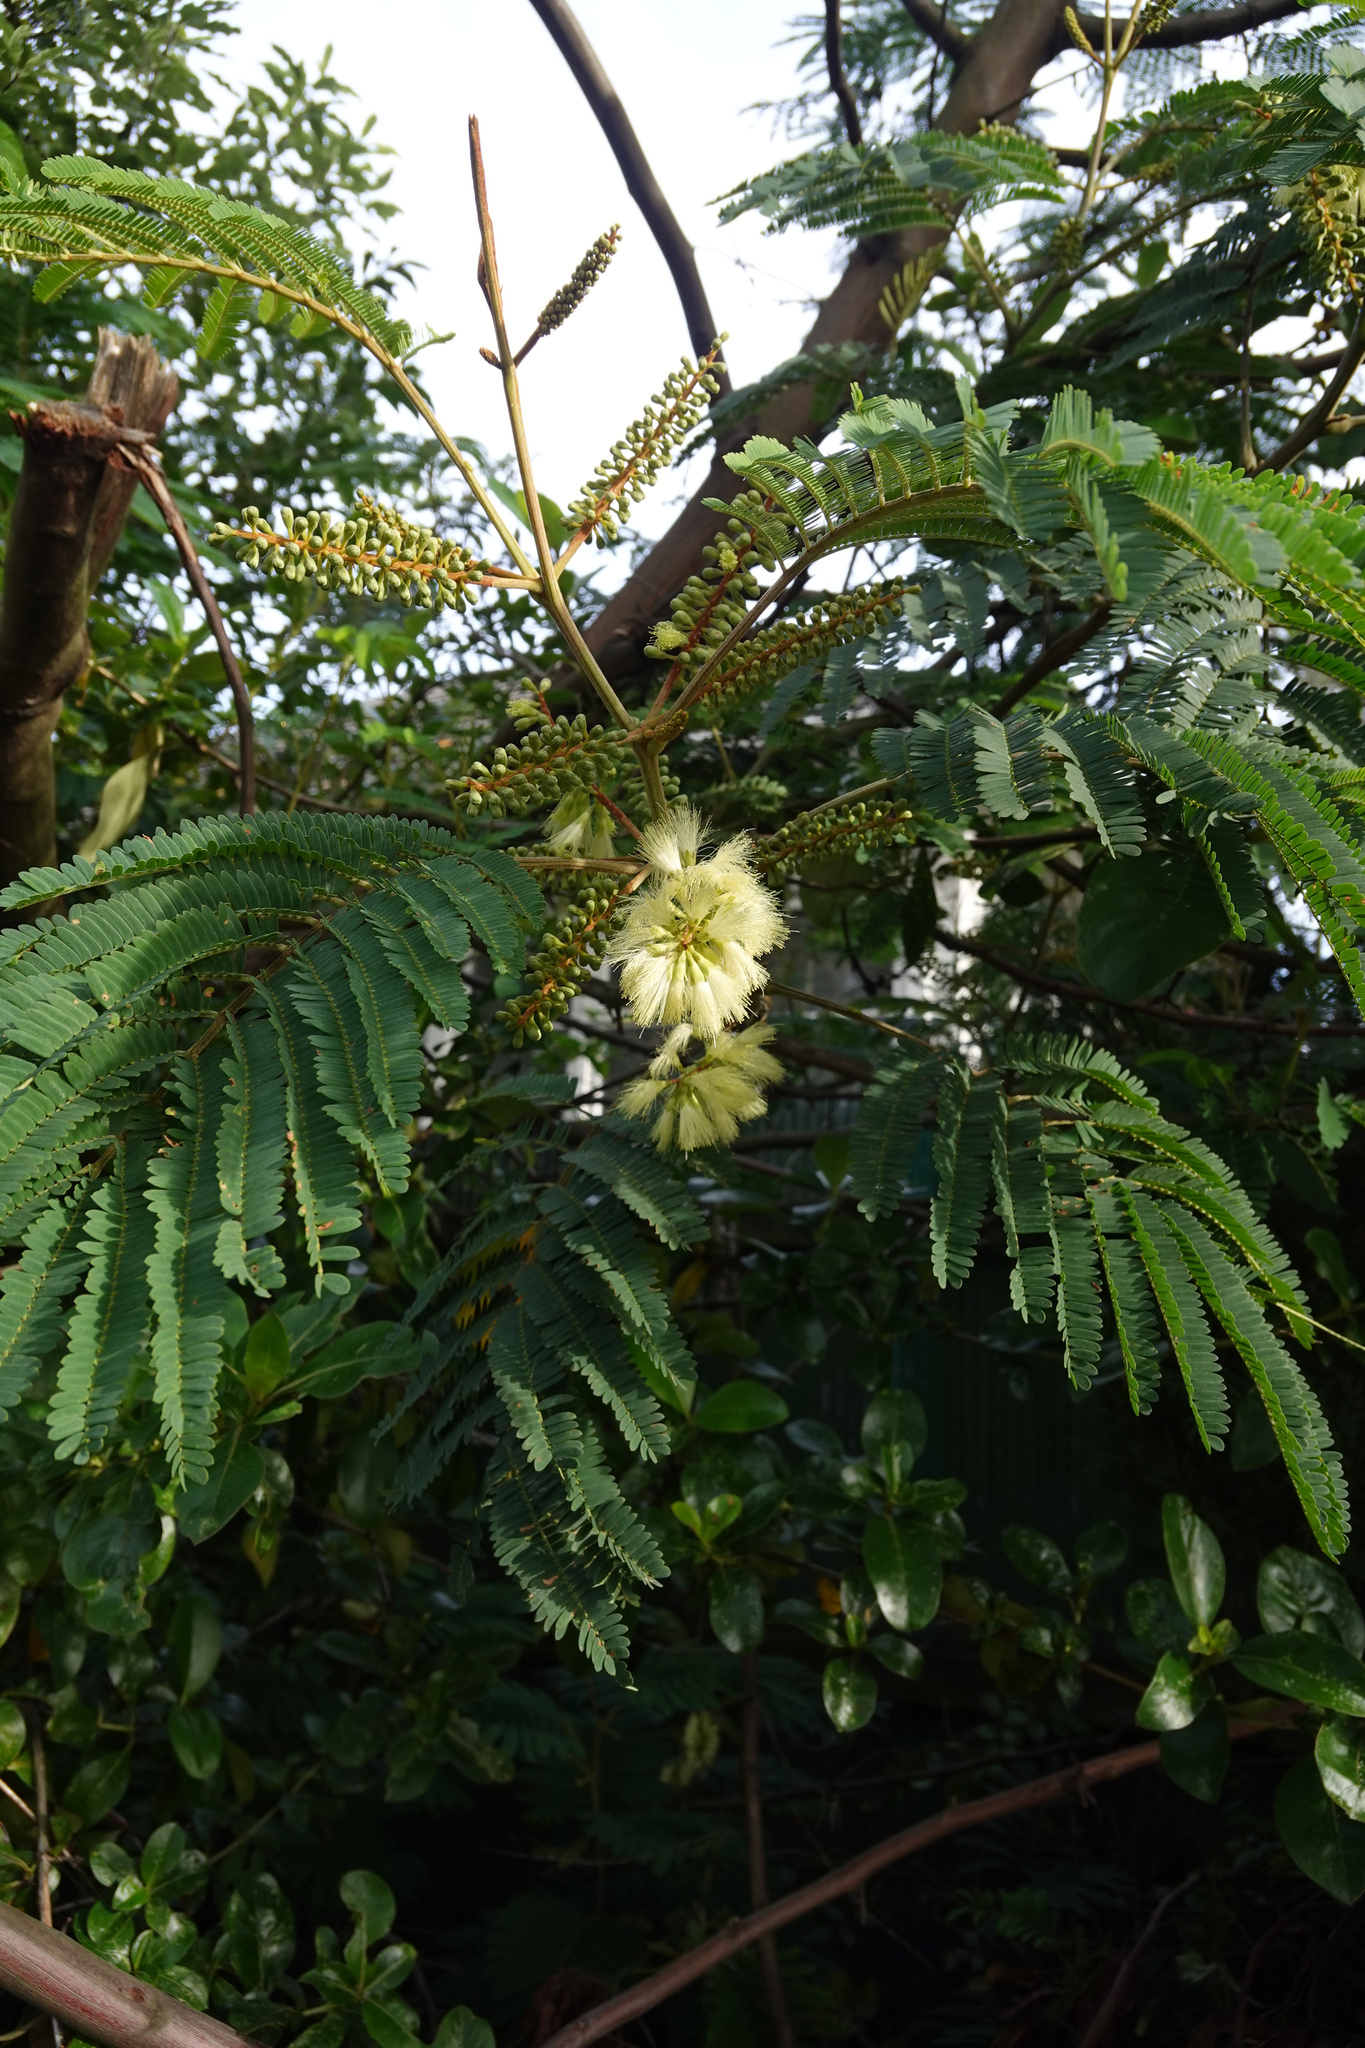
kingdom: Plantae
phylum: Tracheophyta
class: Magnoliopsida
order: Fabales
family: Fabaceae
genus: Paraserianthes
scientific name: Paraserianthes lophantha
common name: Plume albizia
